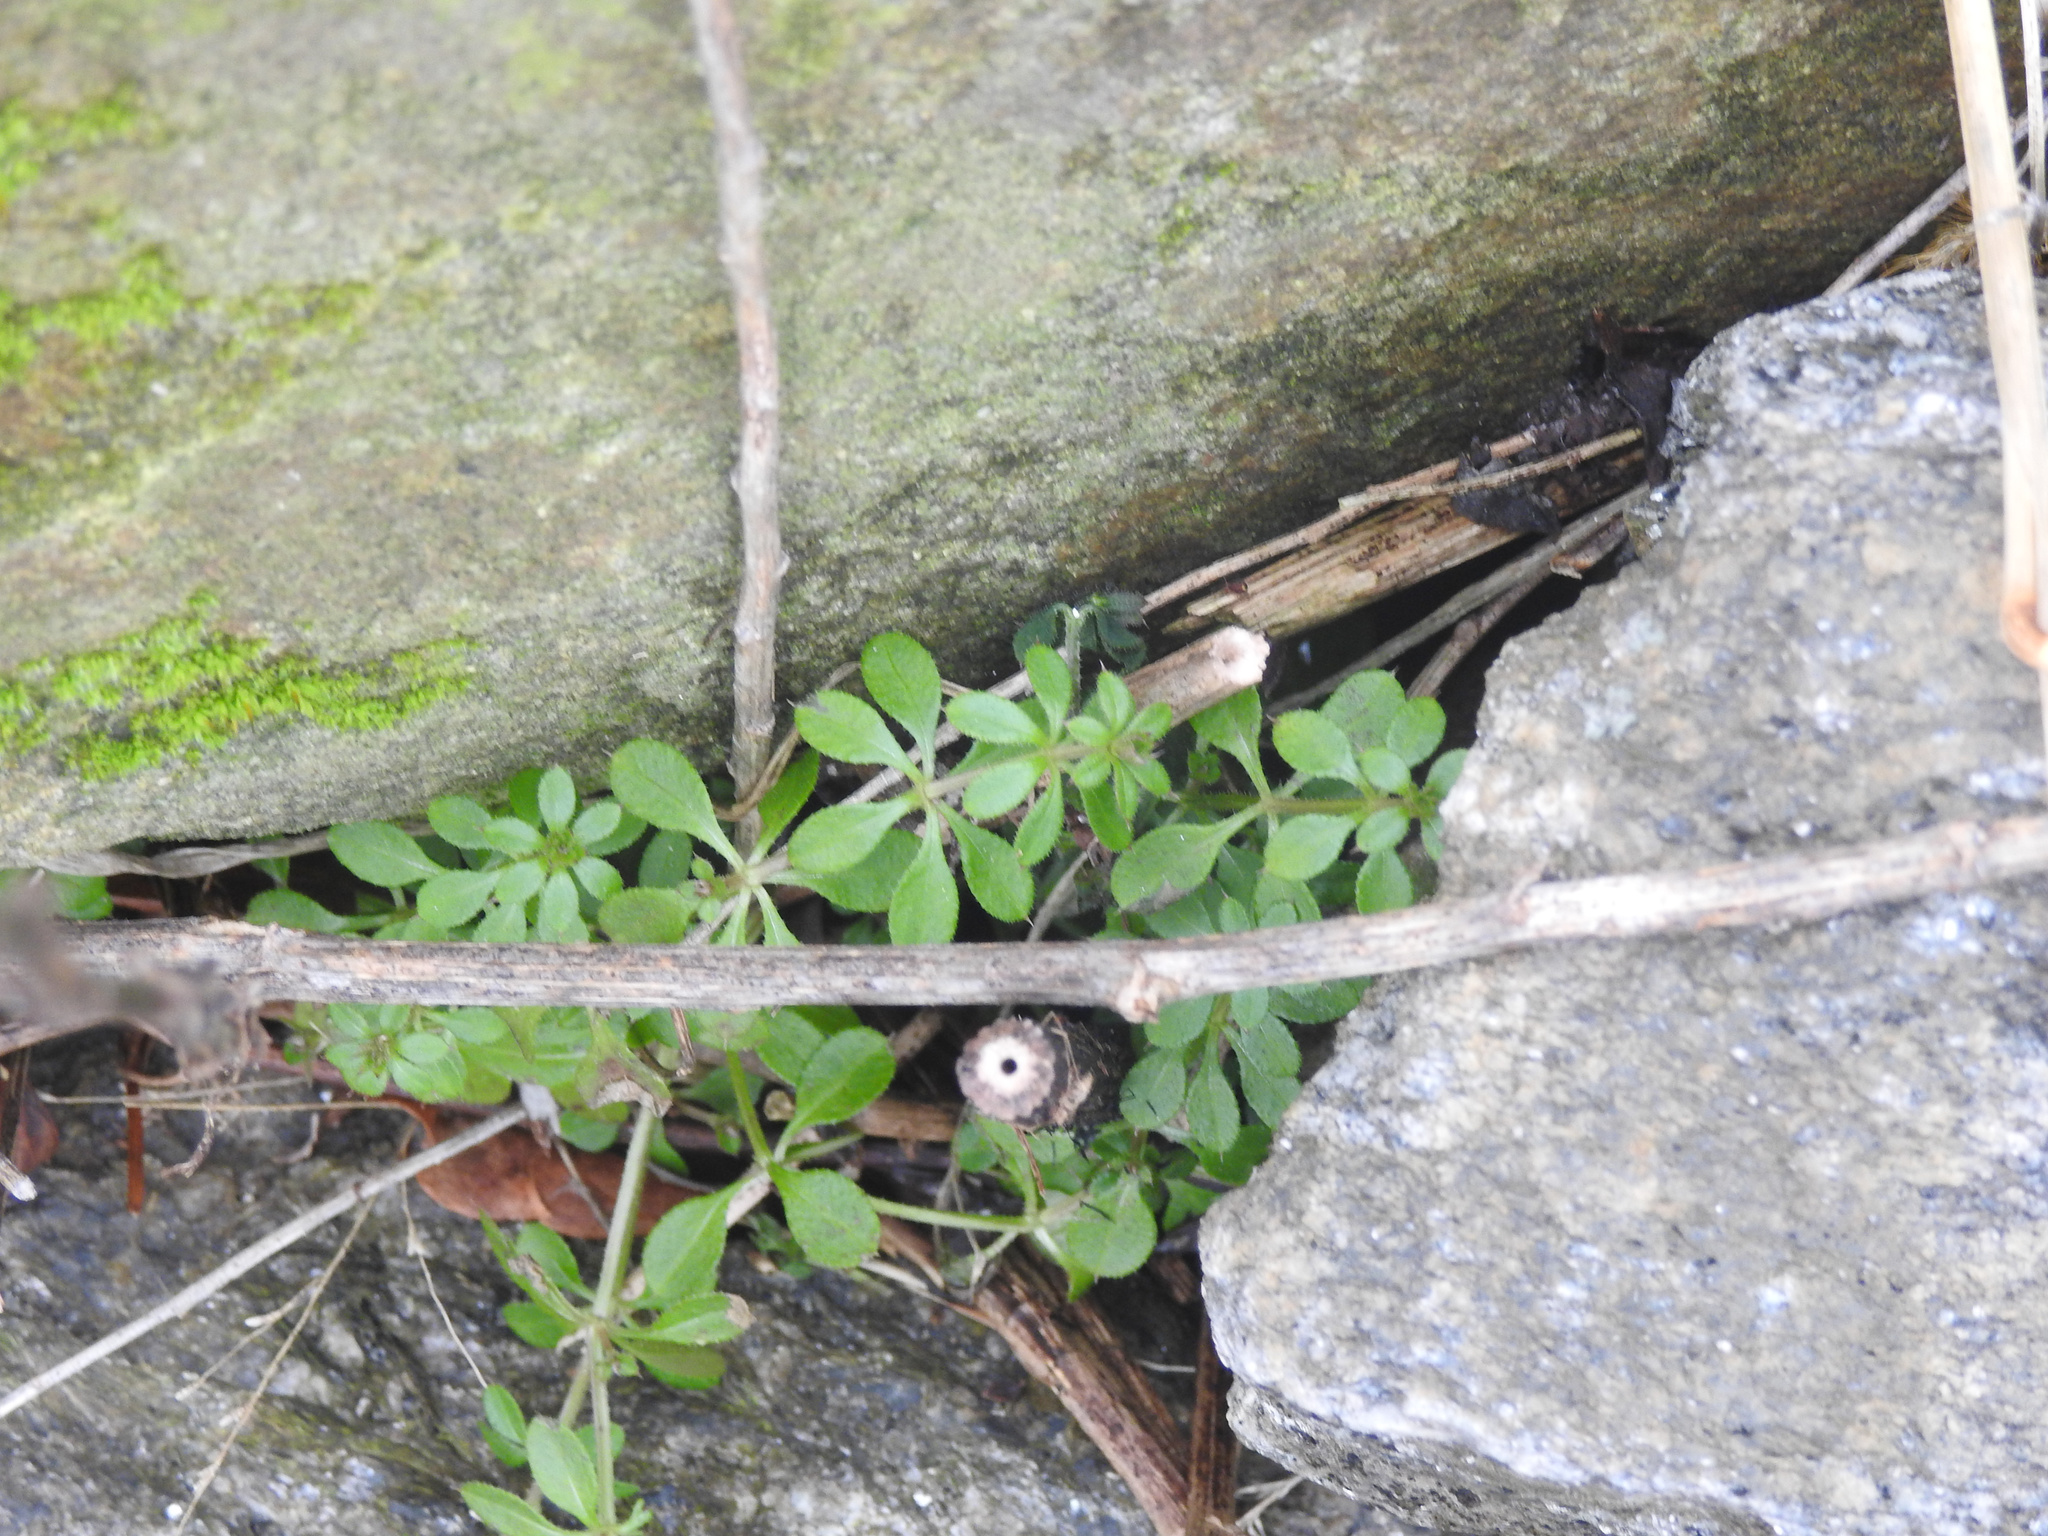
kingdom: Plantae
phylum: Tracheophyta
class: Magnoliopsida
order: Gentianales
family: Rubiaceae
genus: Galium
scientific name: Galium aparine
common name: Cleavers
